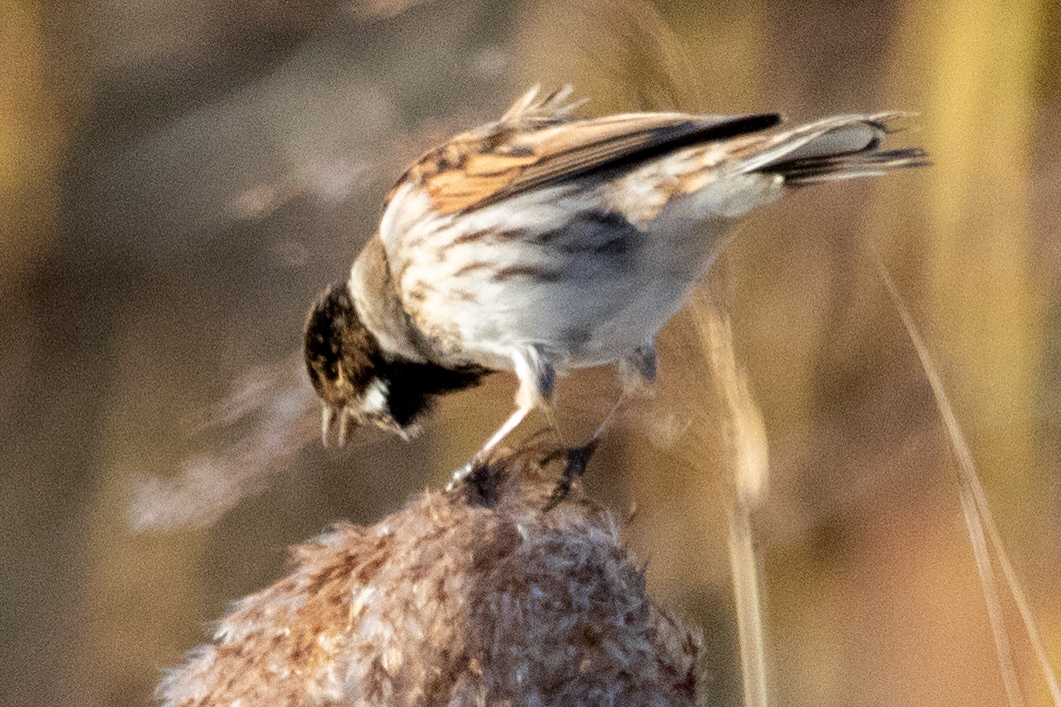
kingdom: Animalia
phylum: Chordata
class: Aves
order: Passeriformes
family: Emberizidae
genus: Emberiza
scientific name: Emberiza schoeniclus
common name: Reed bunting
